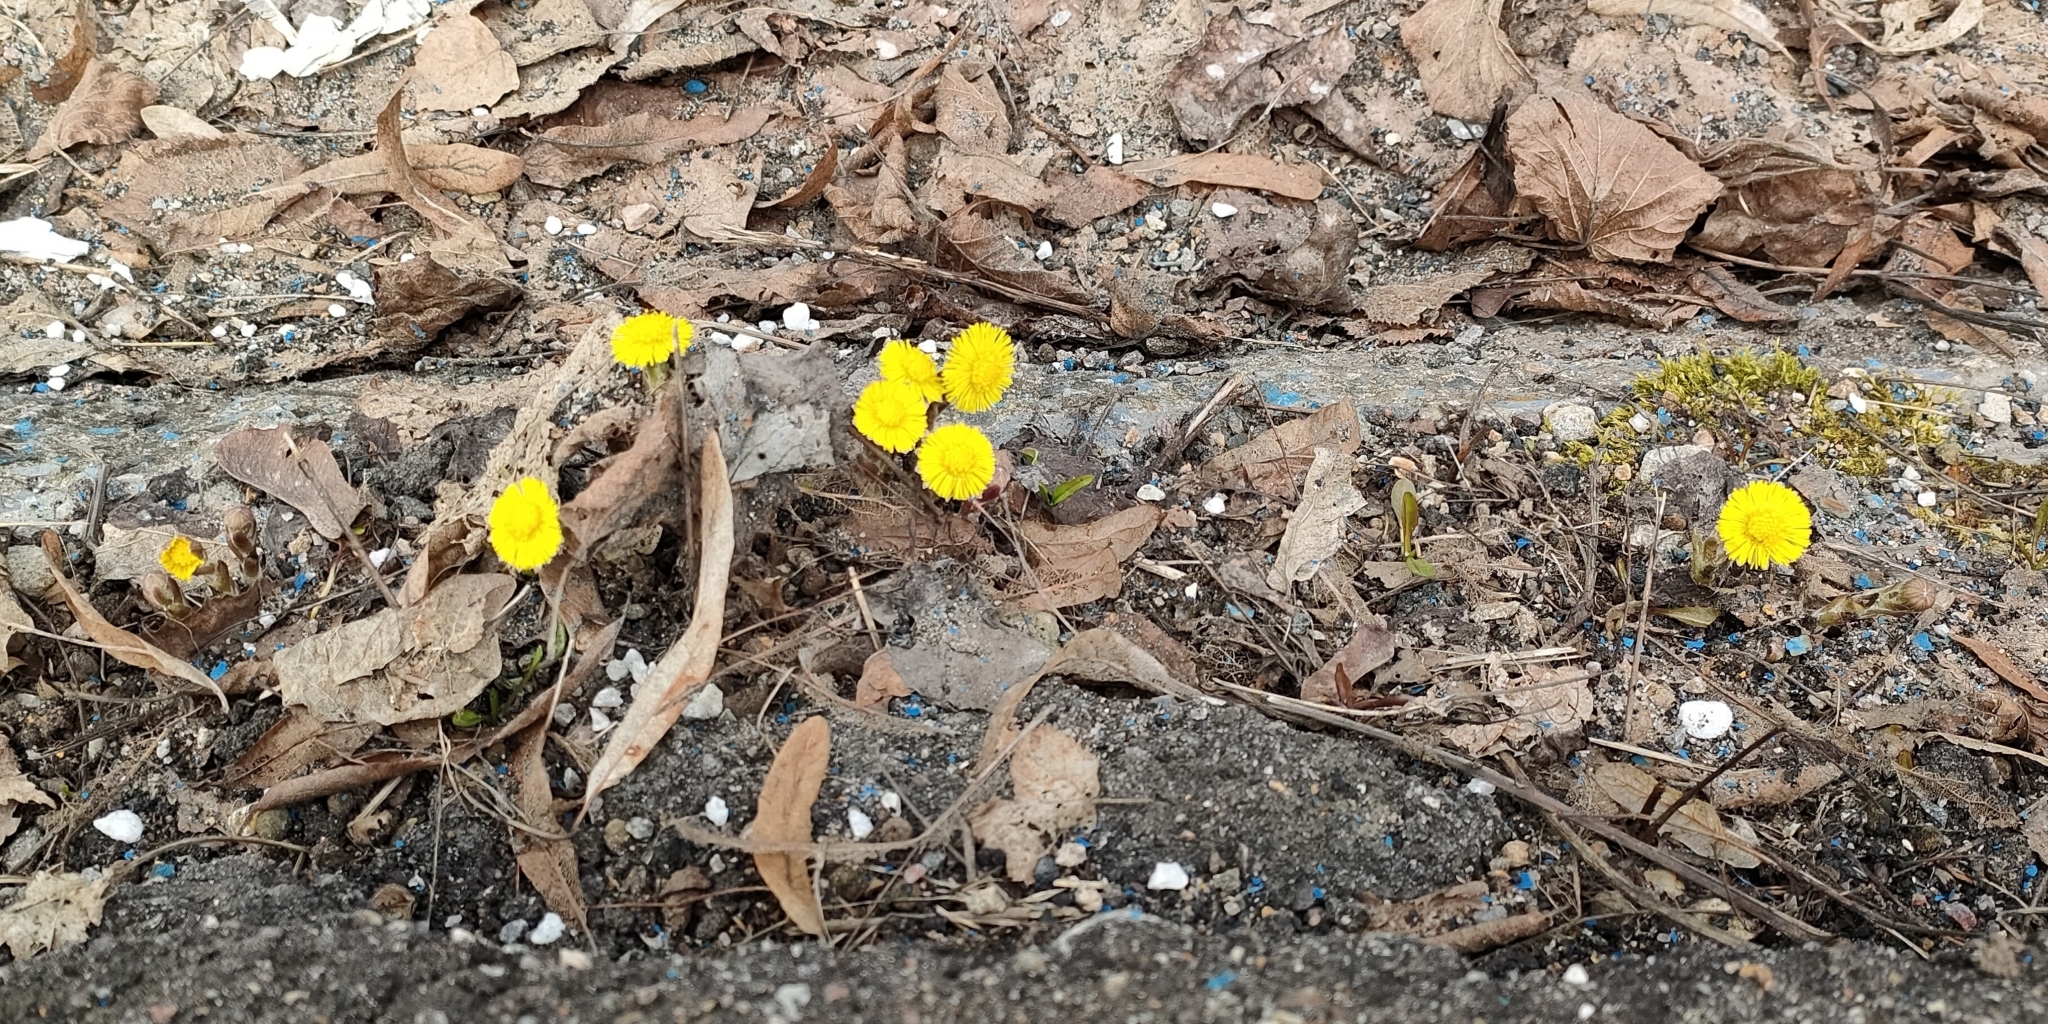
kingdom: Plantae
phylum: Tracheophyta
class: Magnoliopsida
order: Asterales
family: Asteraceae
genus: Tussilago
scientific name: Tussilago farfara
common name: Coltsfoot
